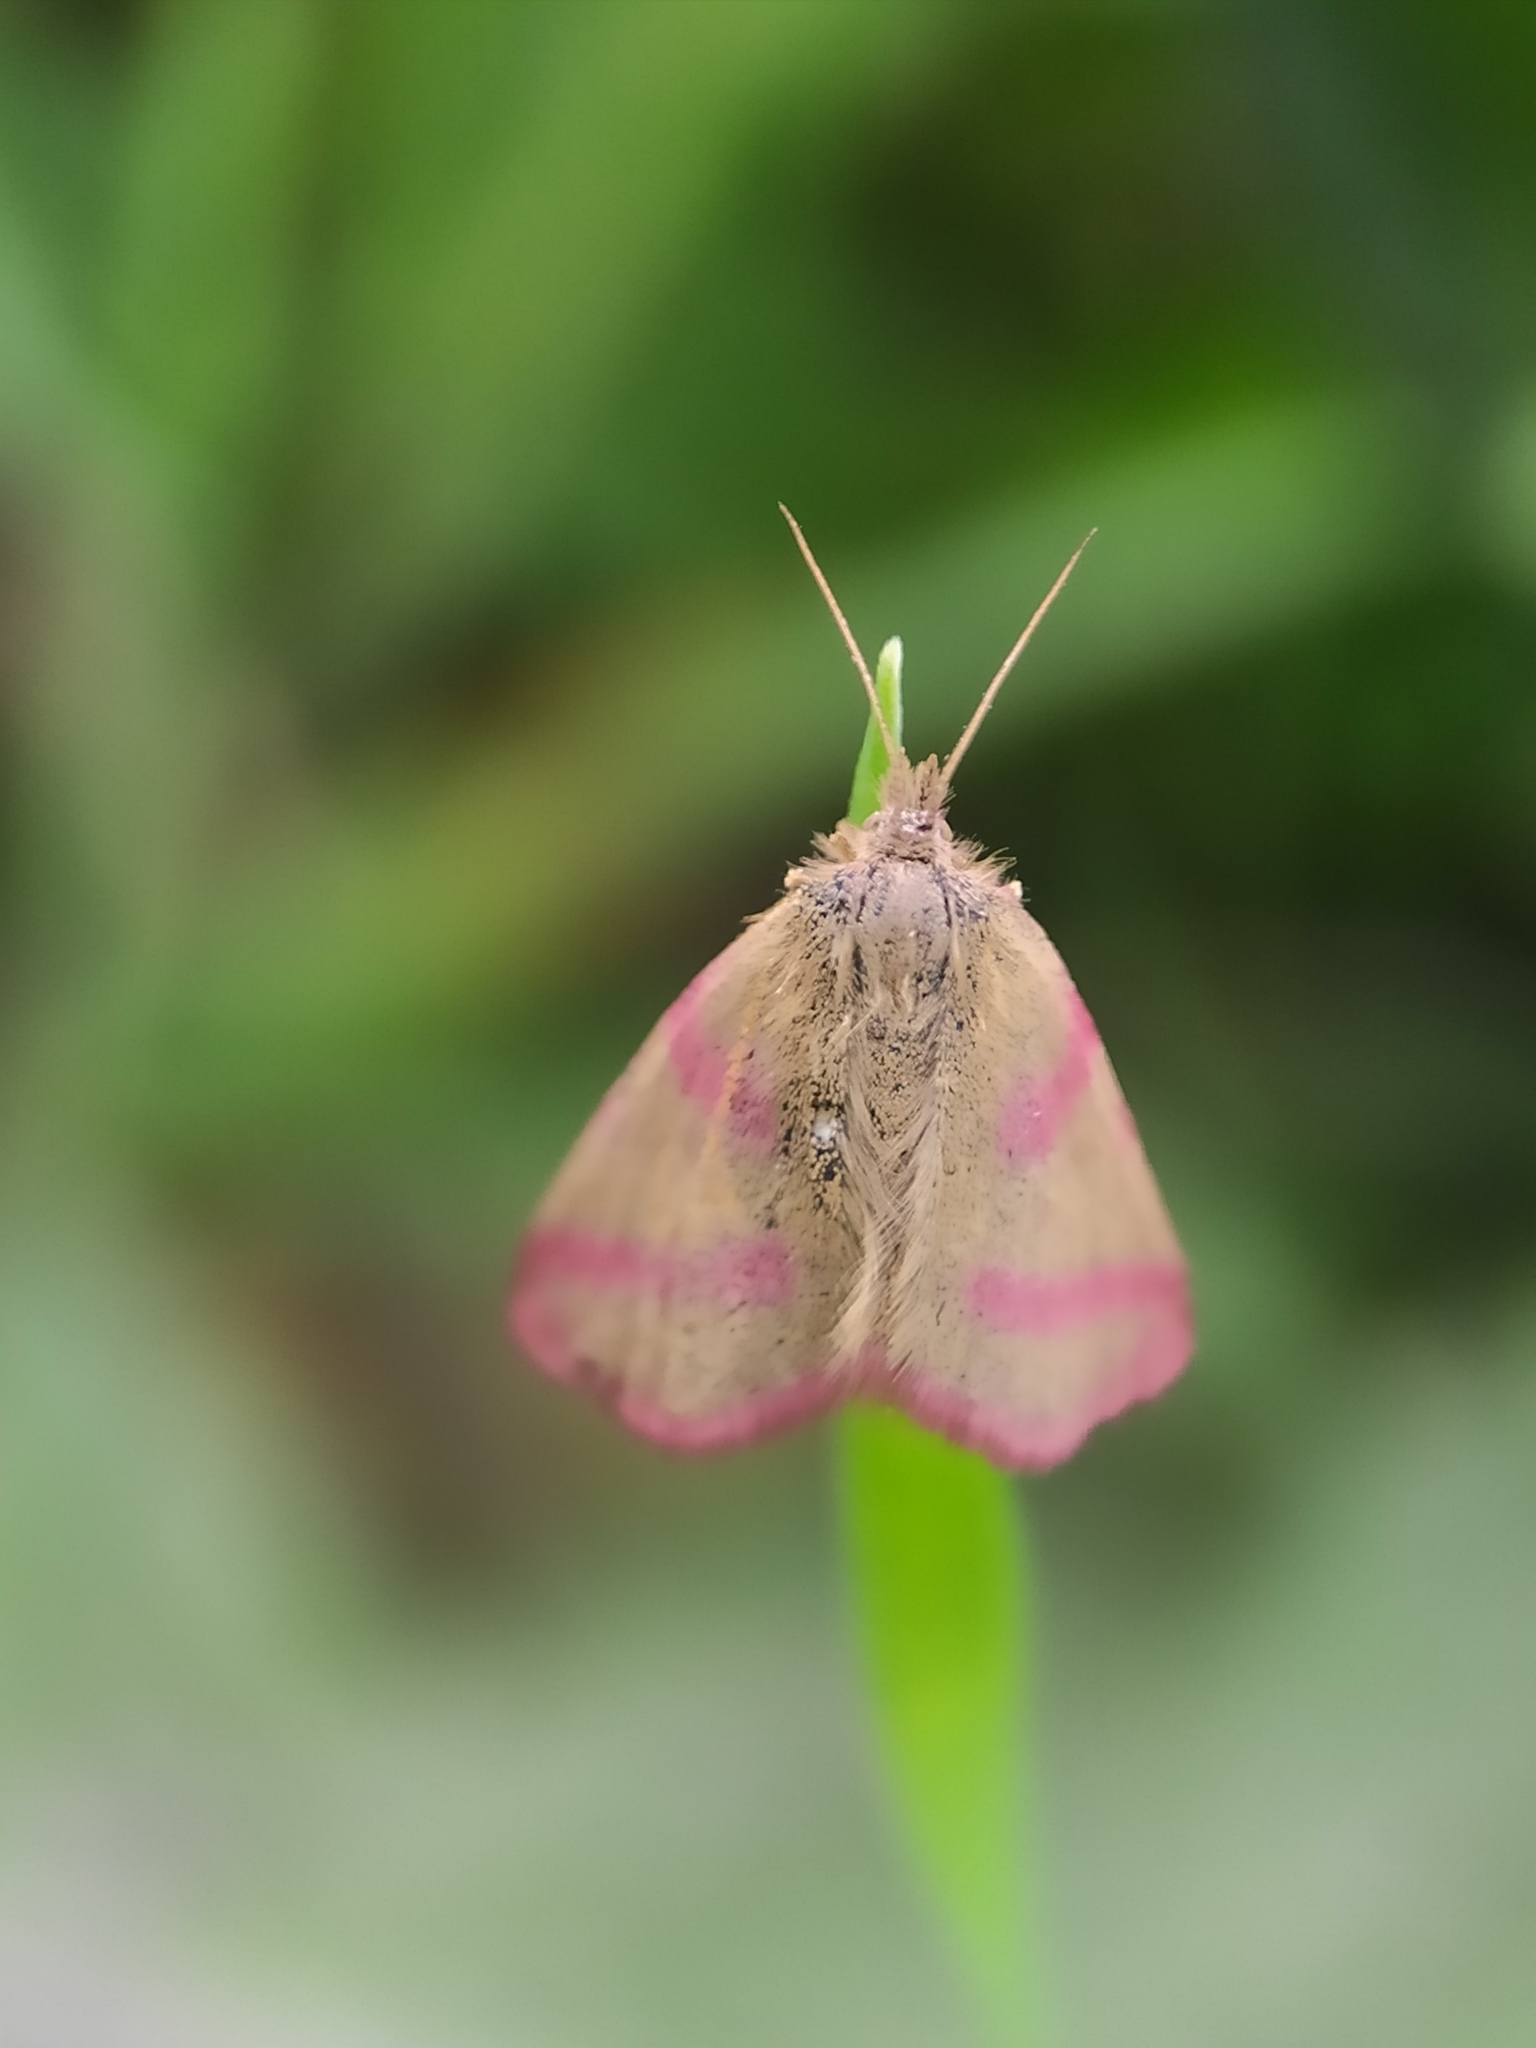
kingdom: Animalia
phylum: Arthropoda
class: Insecta
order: Lepidoptera
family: Geometridae
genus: Lythria
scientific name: Lythria purpuraria
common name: Purple-barred yellow
